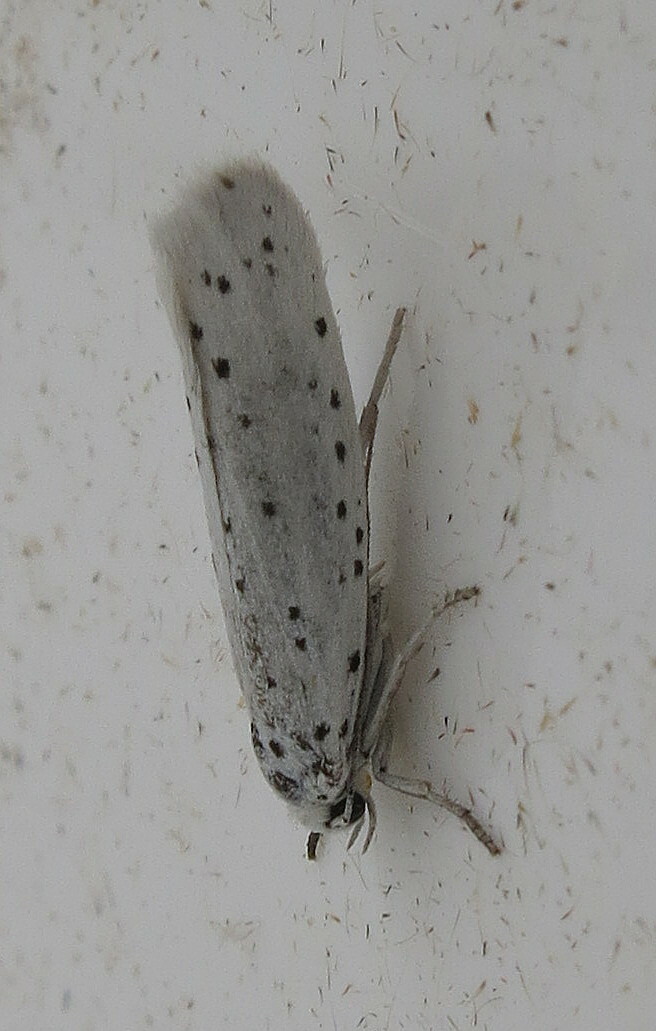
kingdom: Animalia
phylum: Arthropoda
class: Insecta
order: Lepidoptera
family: Yponomeutidae
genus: Yponomeuta
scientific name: Yponomeuta
